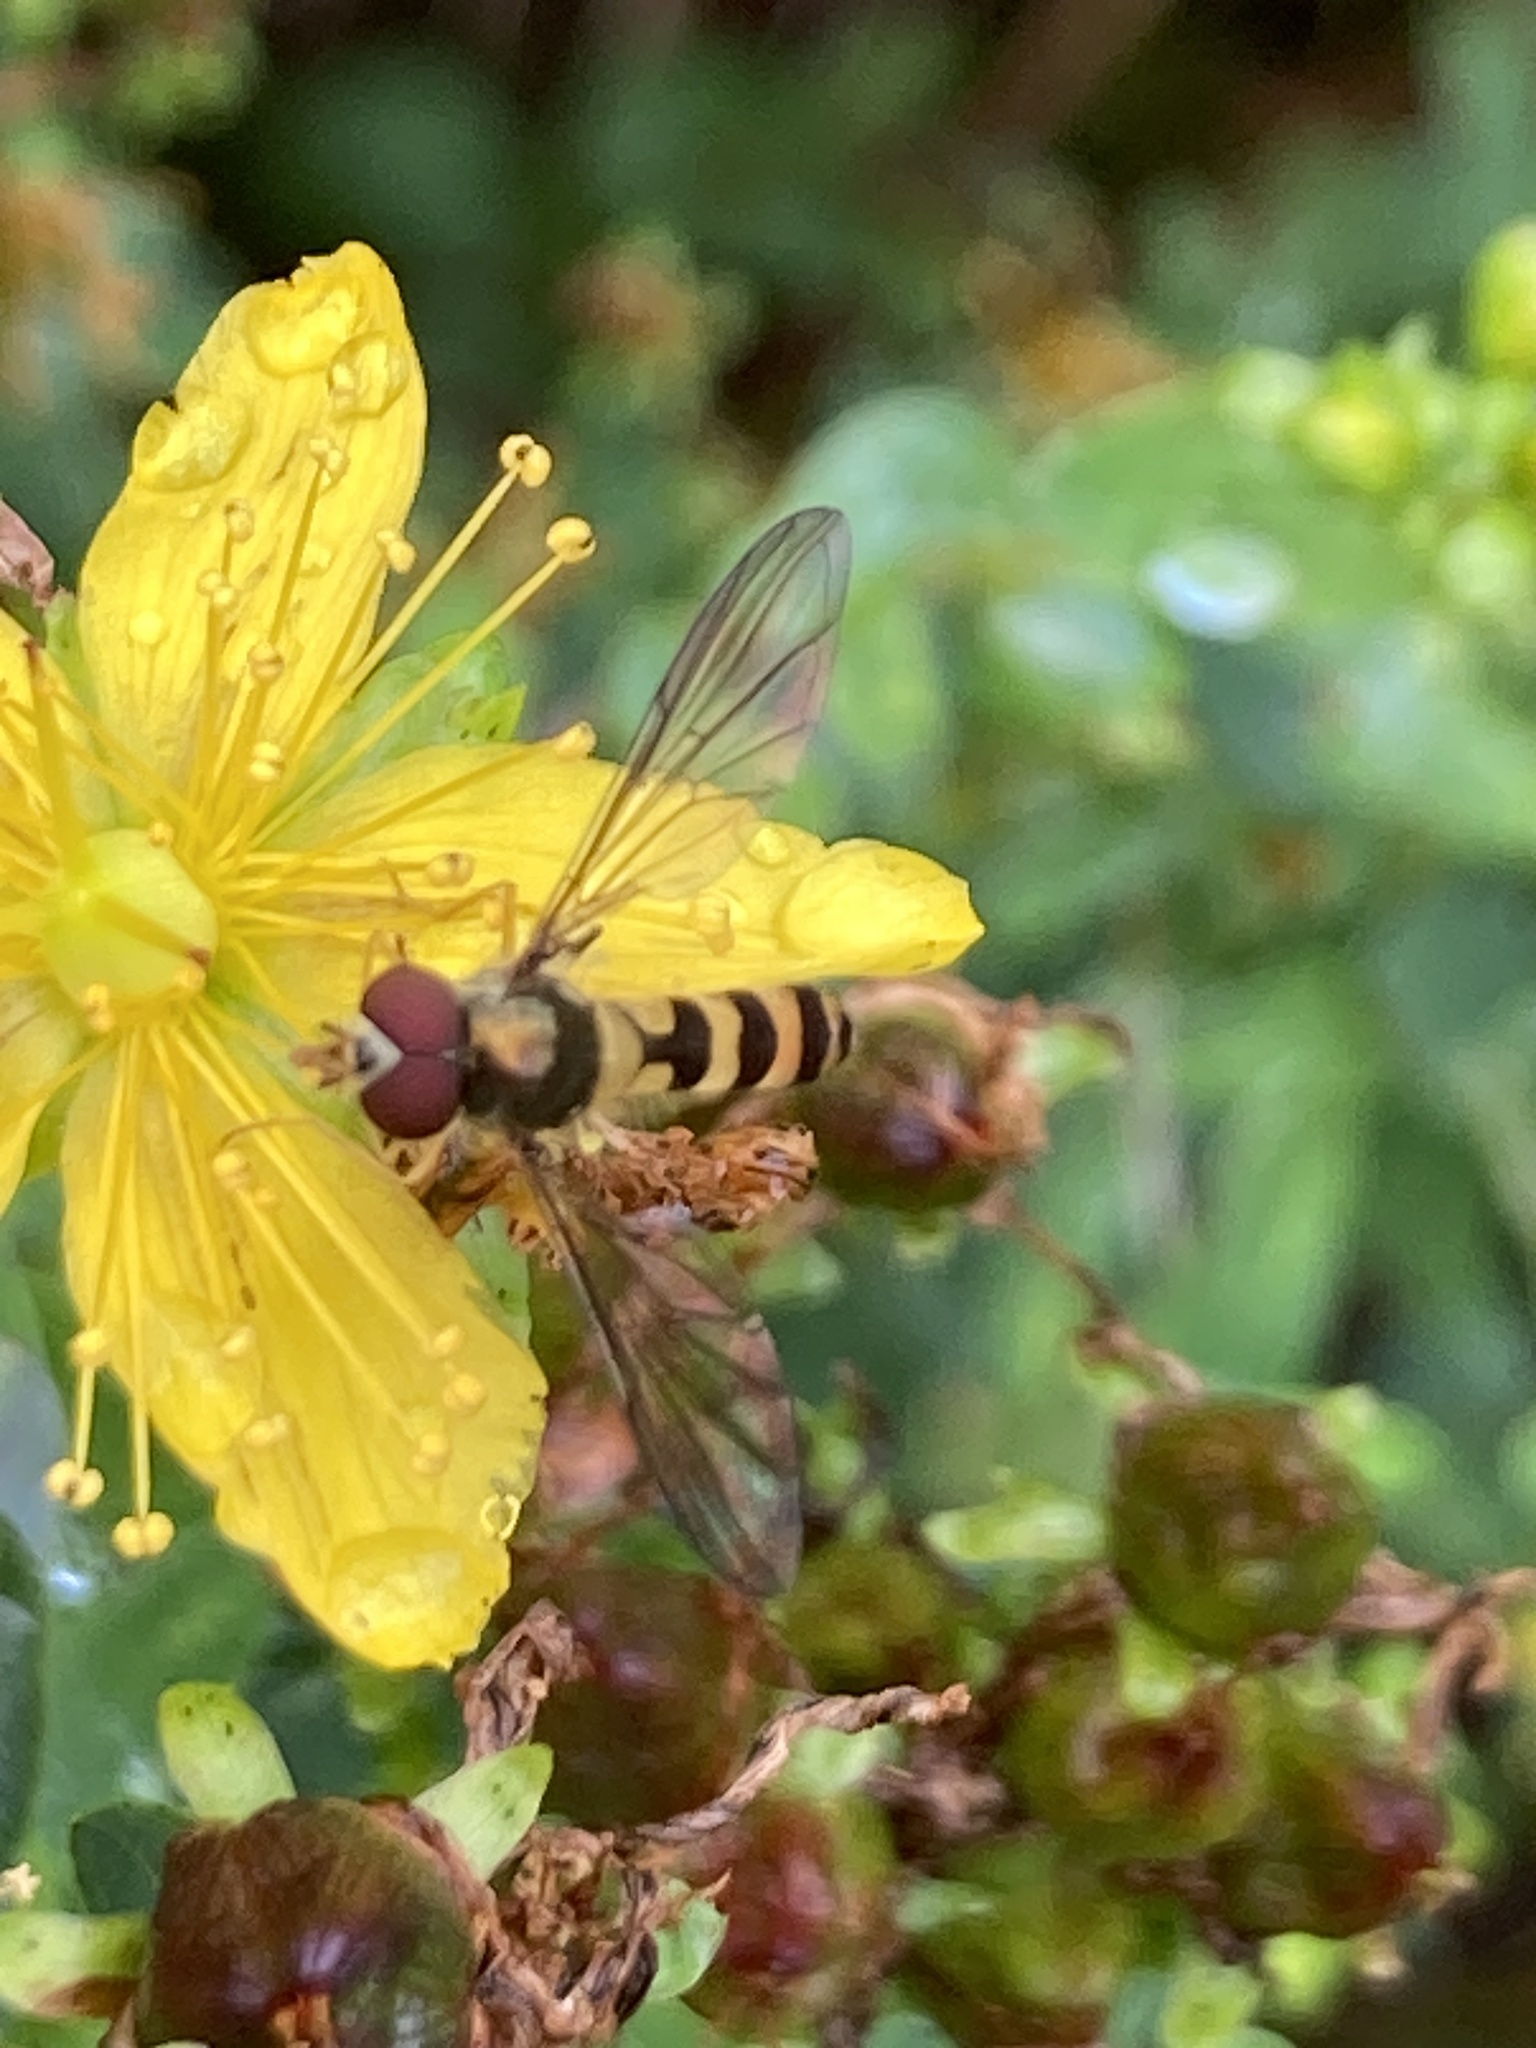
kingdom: Animalia
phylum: Arthropoda
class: Insecta
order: Diptera
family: Syrphidae
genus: Meliscaeva
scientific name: Meliscaeva cinctella
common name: American thintail fly
